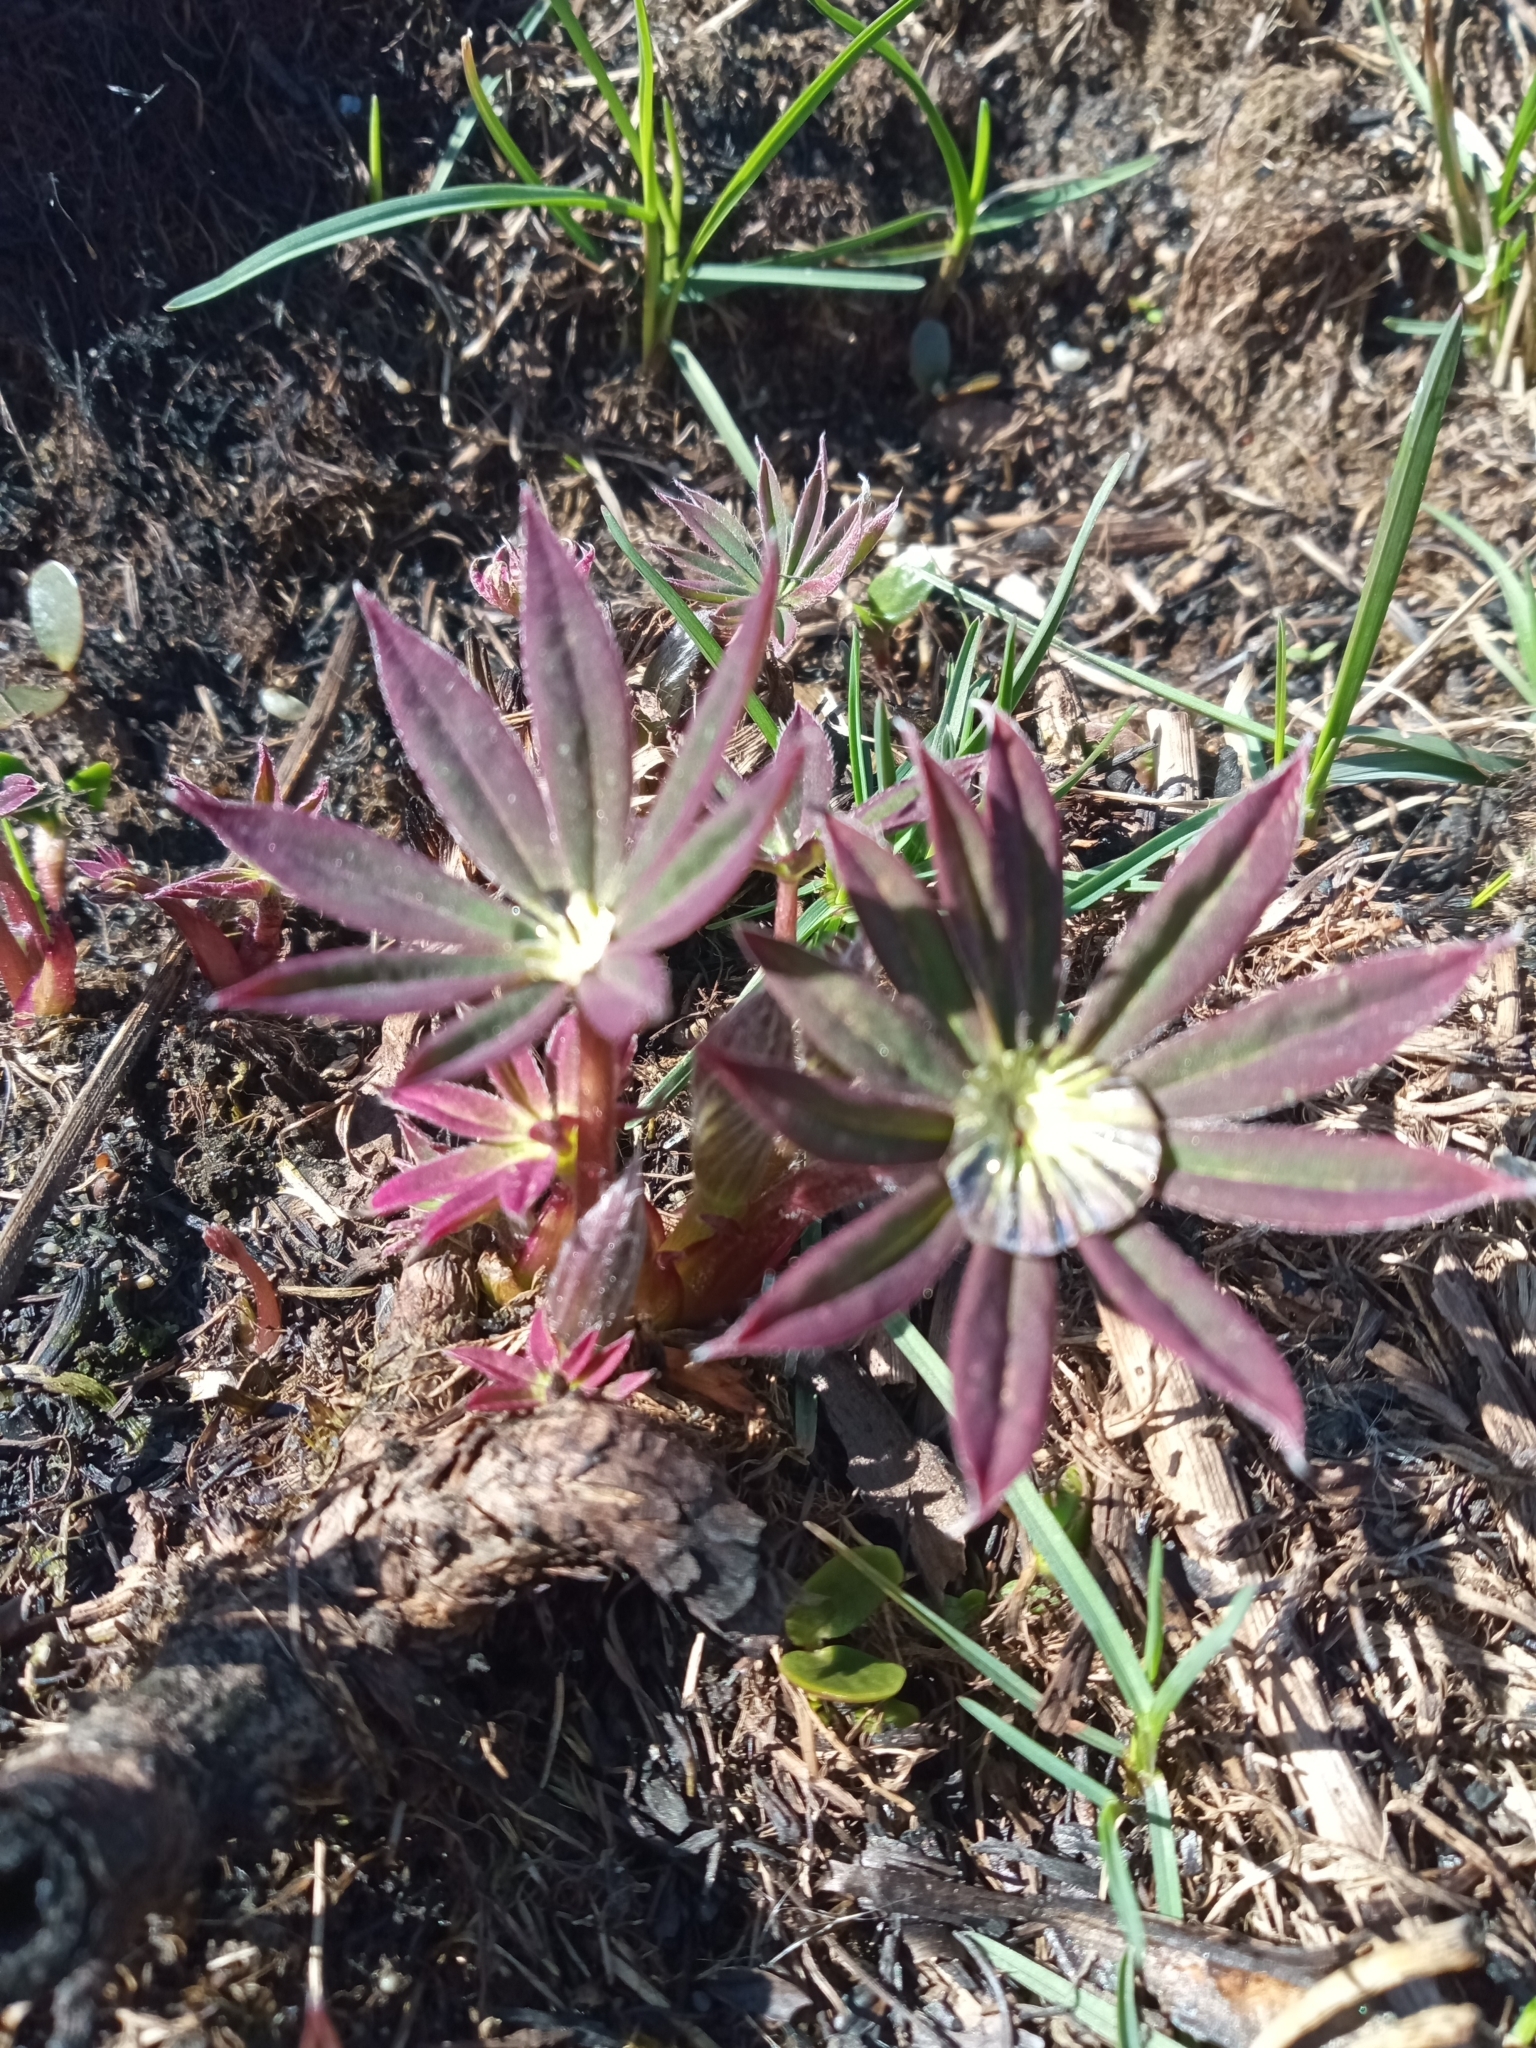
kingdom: Plantae
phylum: Tracheophyta
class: Magnoliopsida
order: Fabales
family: Fabaceae
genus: Lupinus
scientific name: Lupinus polyphyllus
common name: Garden lupin
